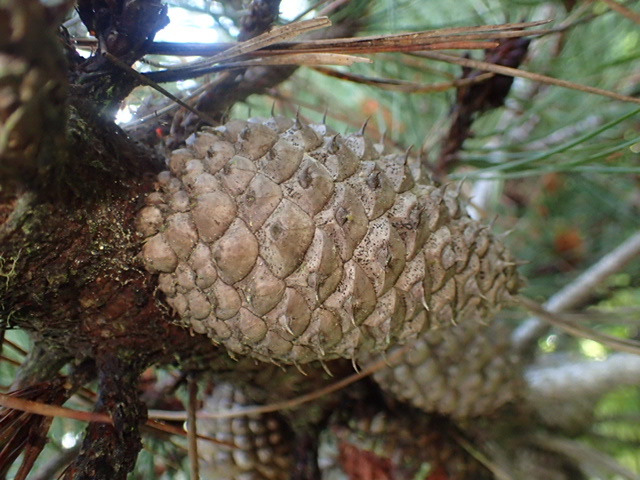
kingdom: Plantae
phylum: Tracheophyta
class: Pinopsida
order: Pinales
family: Pinaceae
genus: Pinus
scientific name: Pinus muricata
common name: Bishop pine
